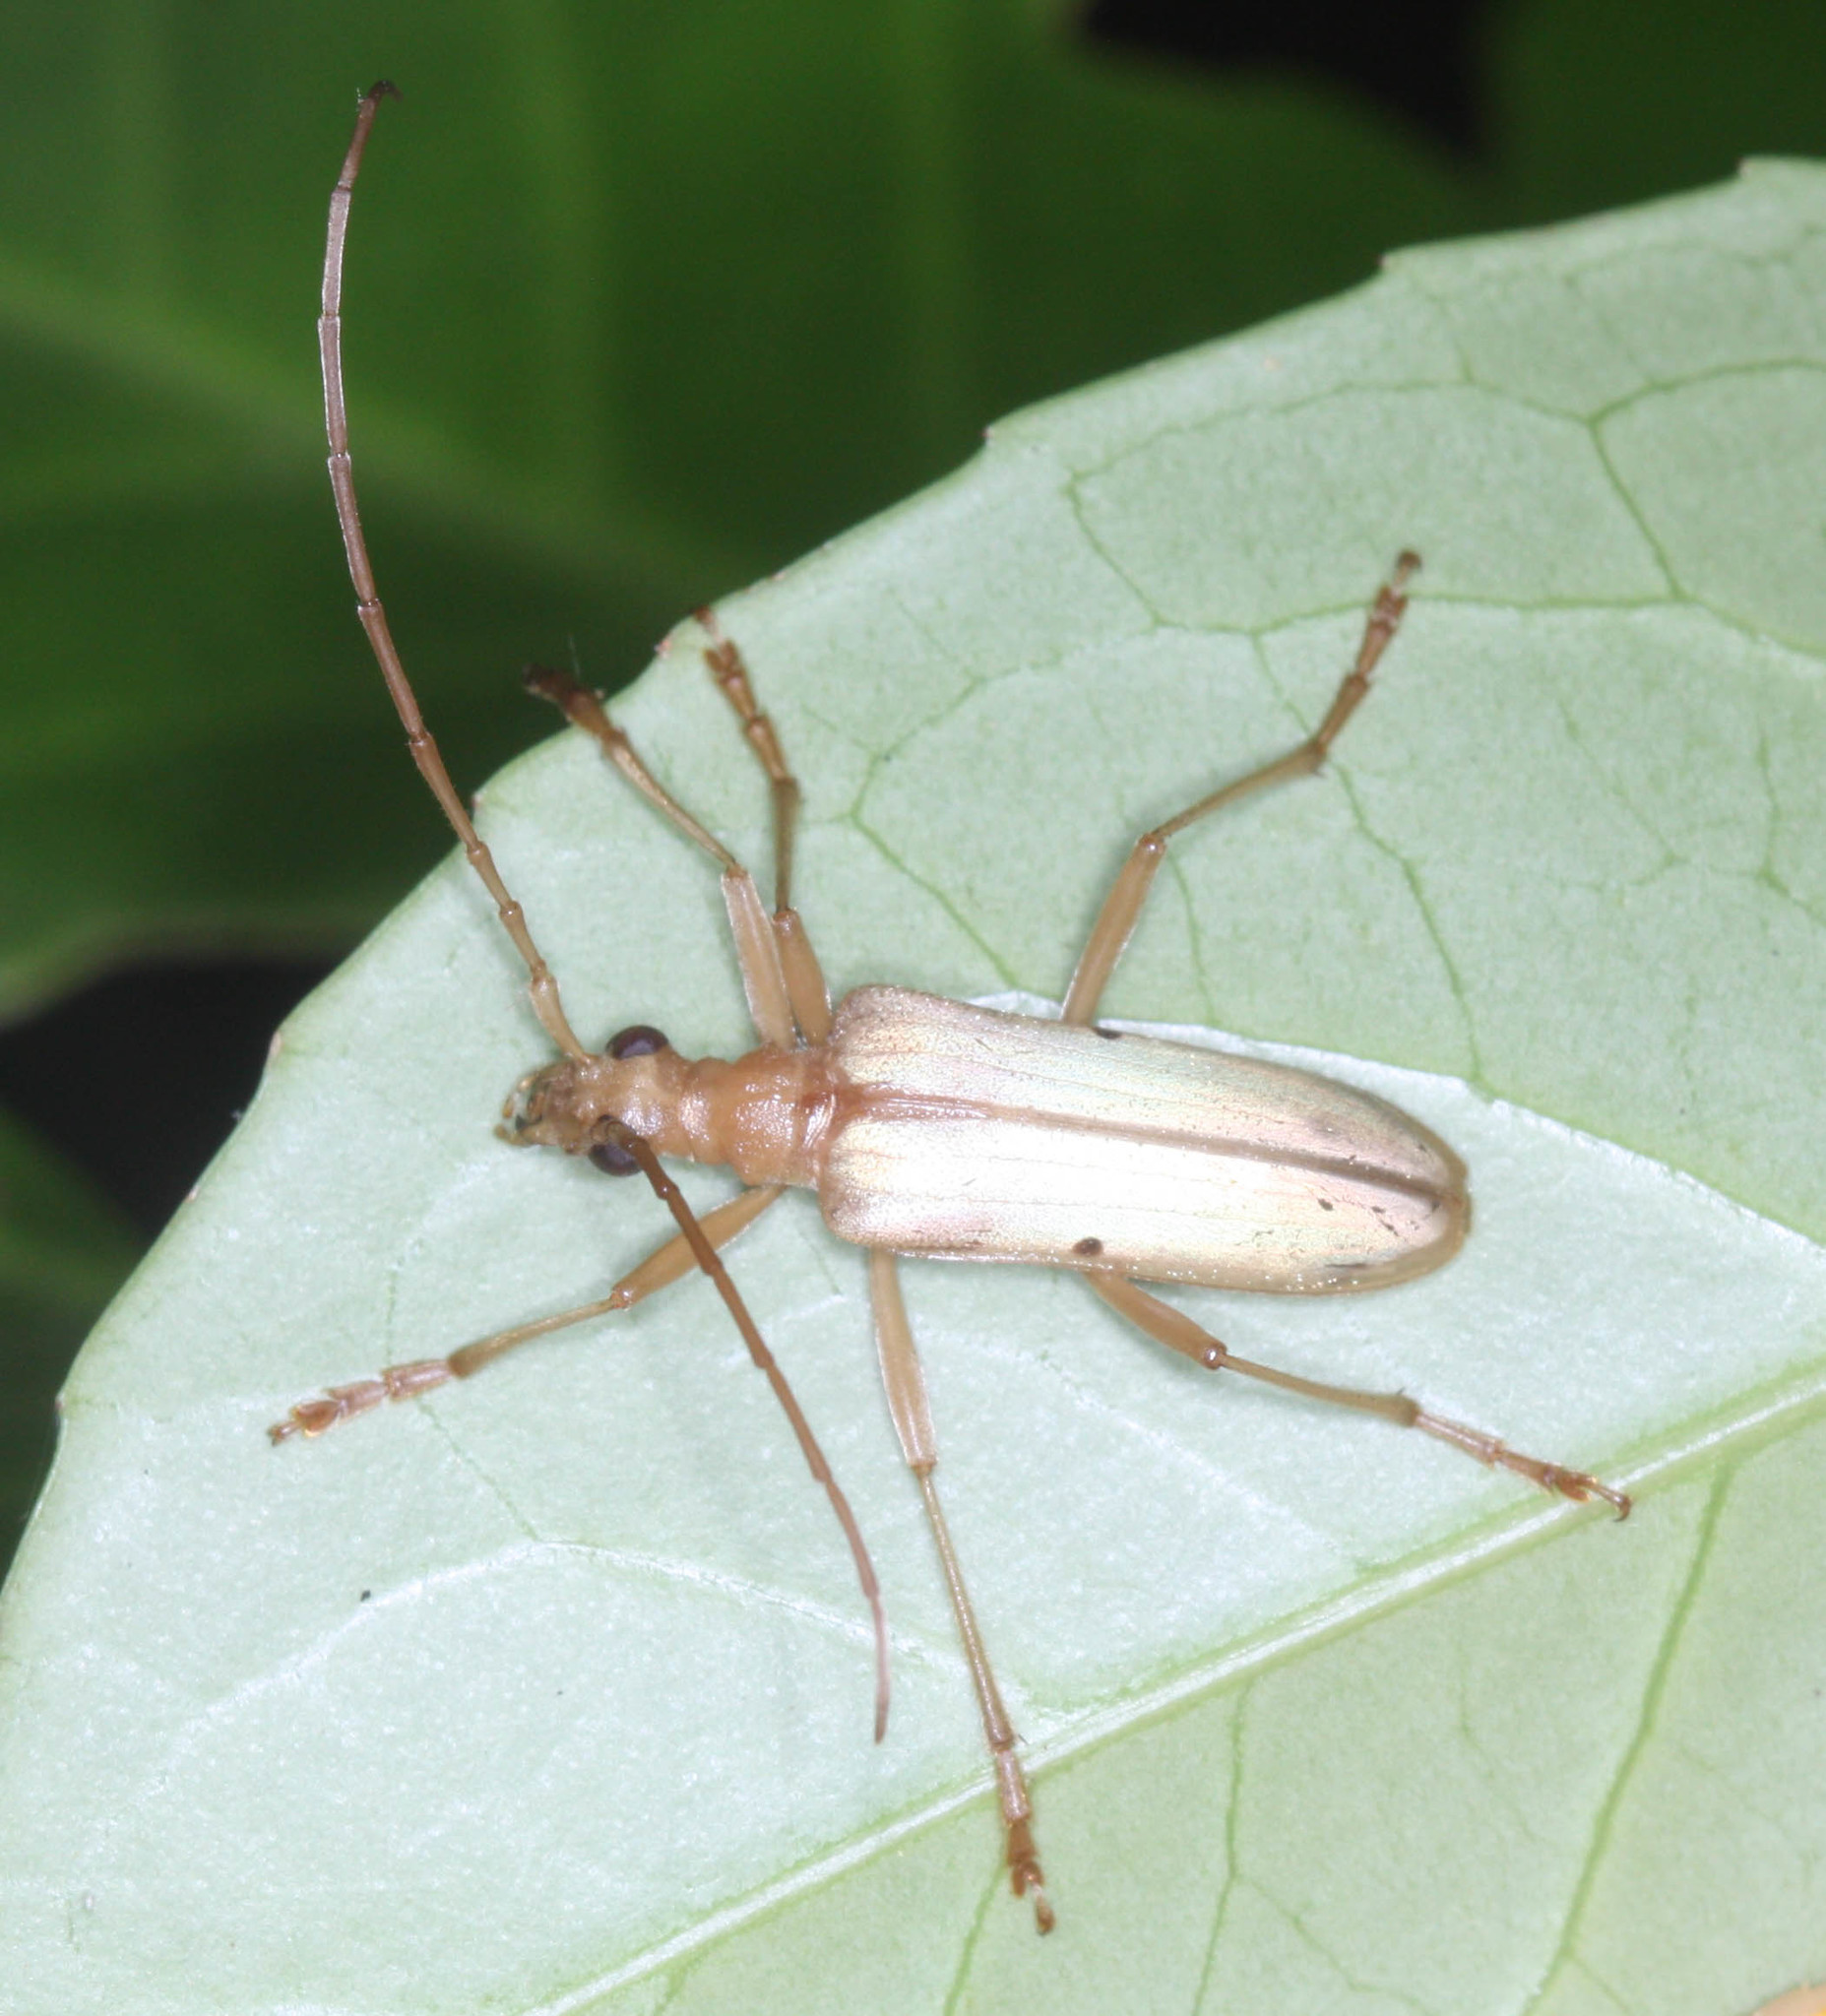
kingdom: Animalia
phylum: Arthropoda
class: Insecta
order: Coleoptera
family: Cerambycidae
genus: Centrodera
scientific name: Centrodera spurca
